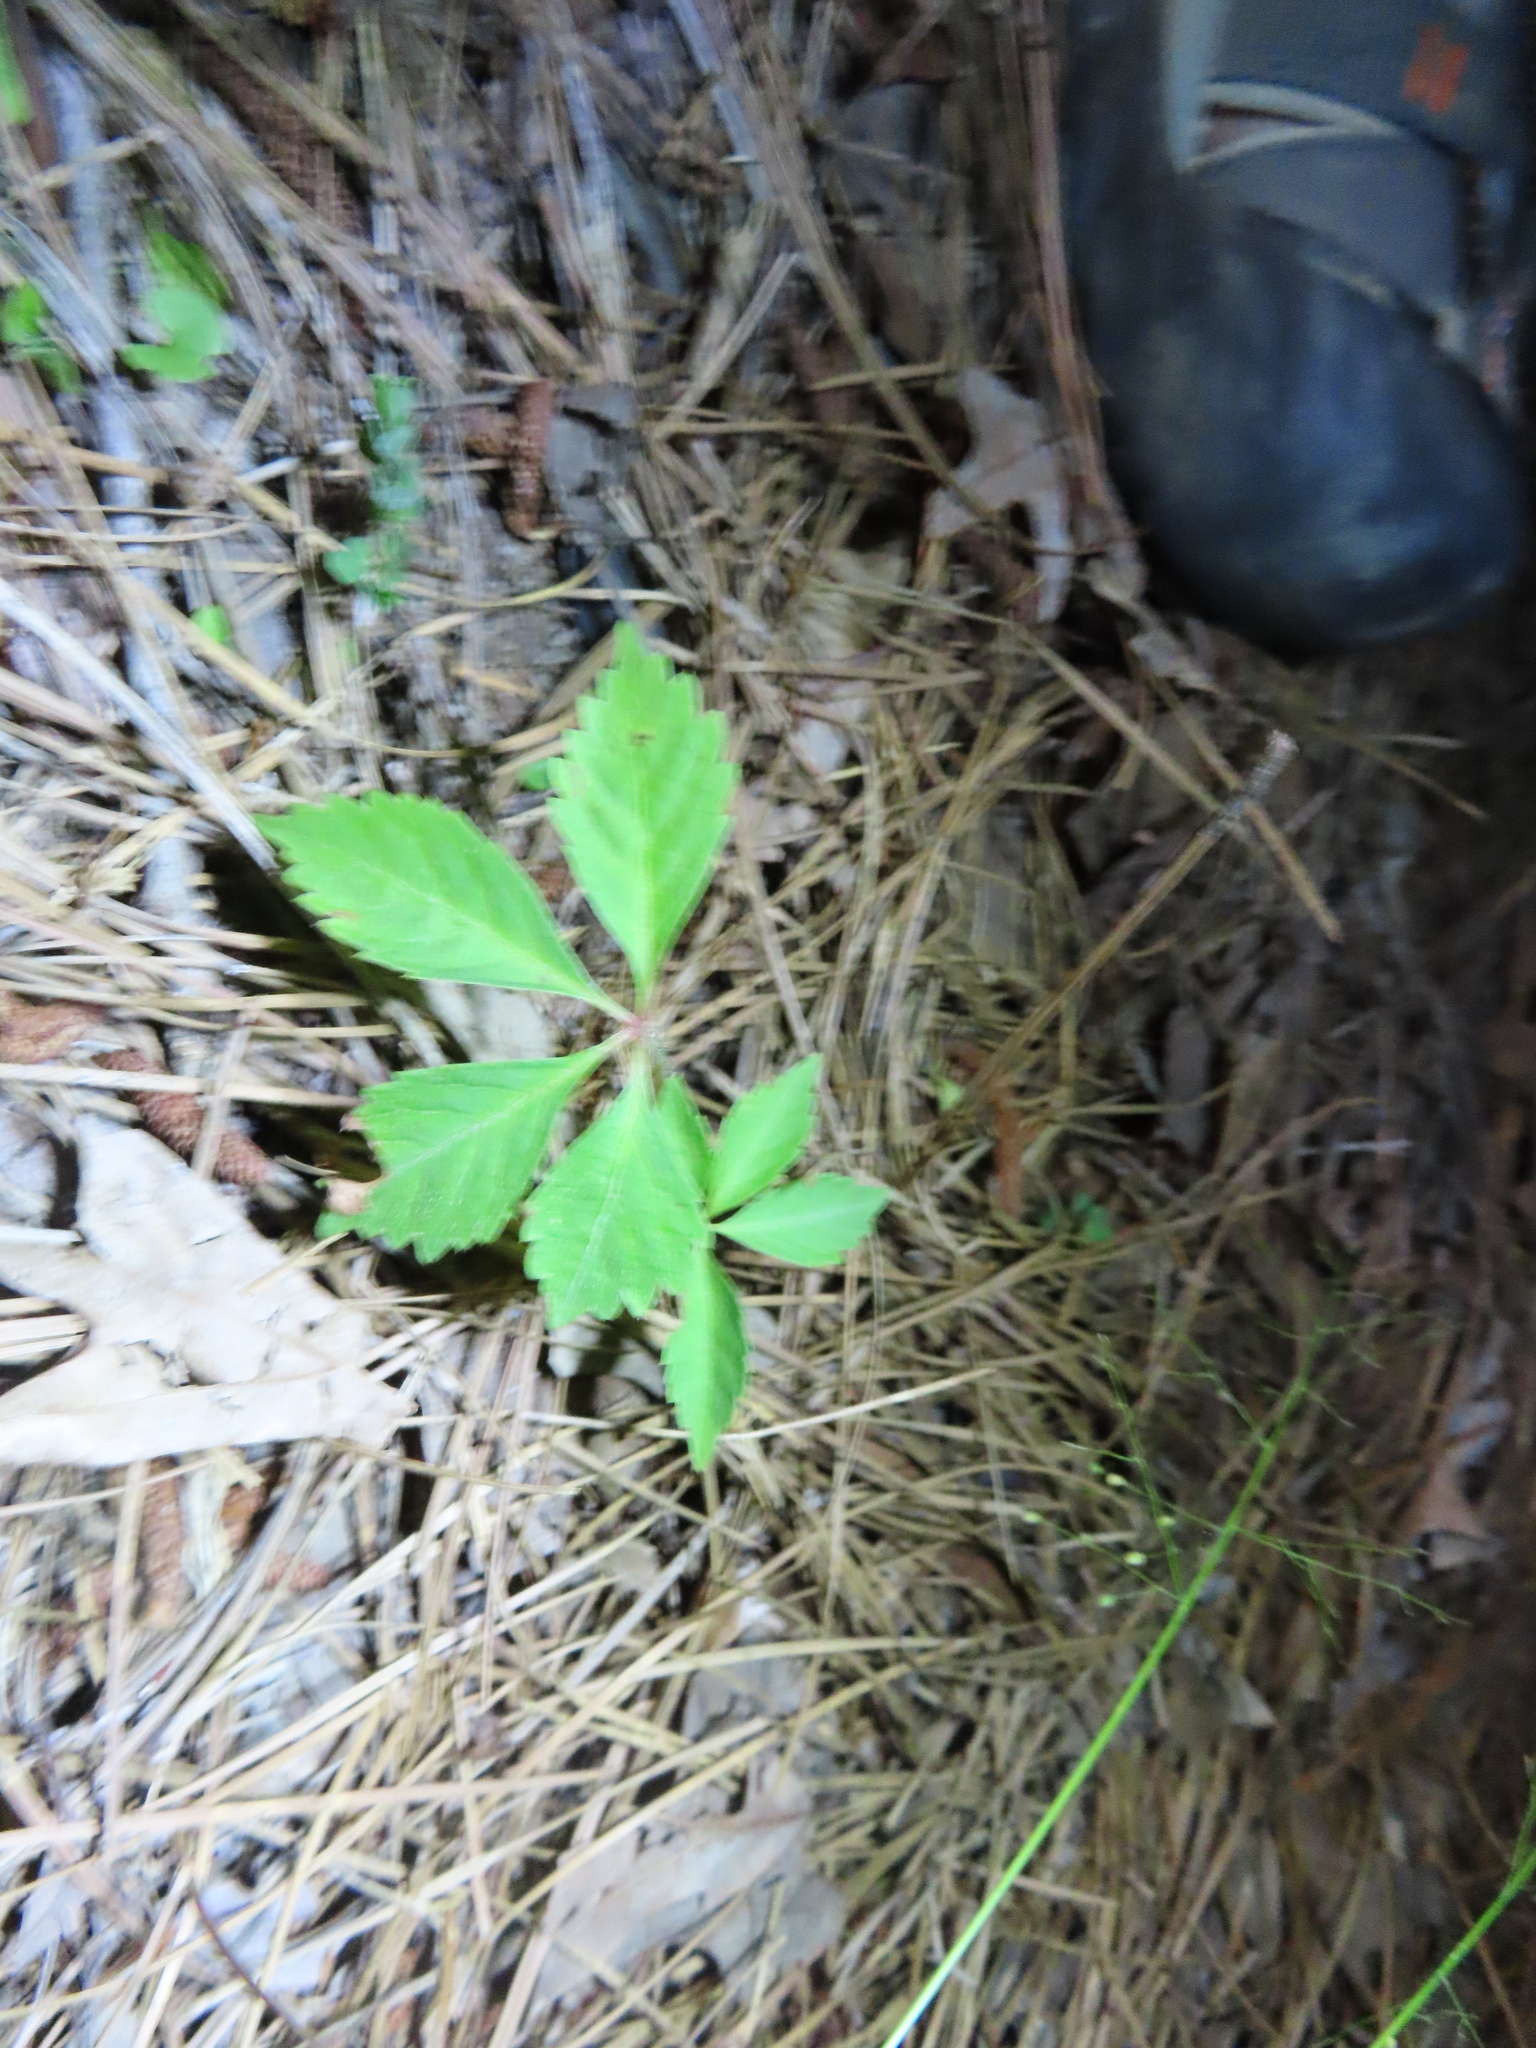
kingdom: Plantae
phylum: Tracheophyta
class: Magnoliopsida
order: Vitales
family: Vitaceae
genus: Parthenocissus
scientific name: Parthenocissus quinquefolia
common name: Virginia-creeper
